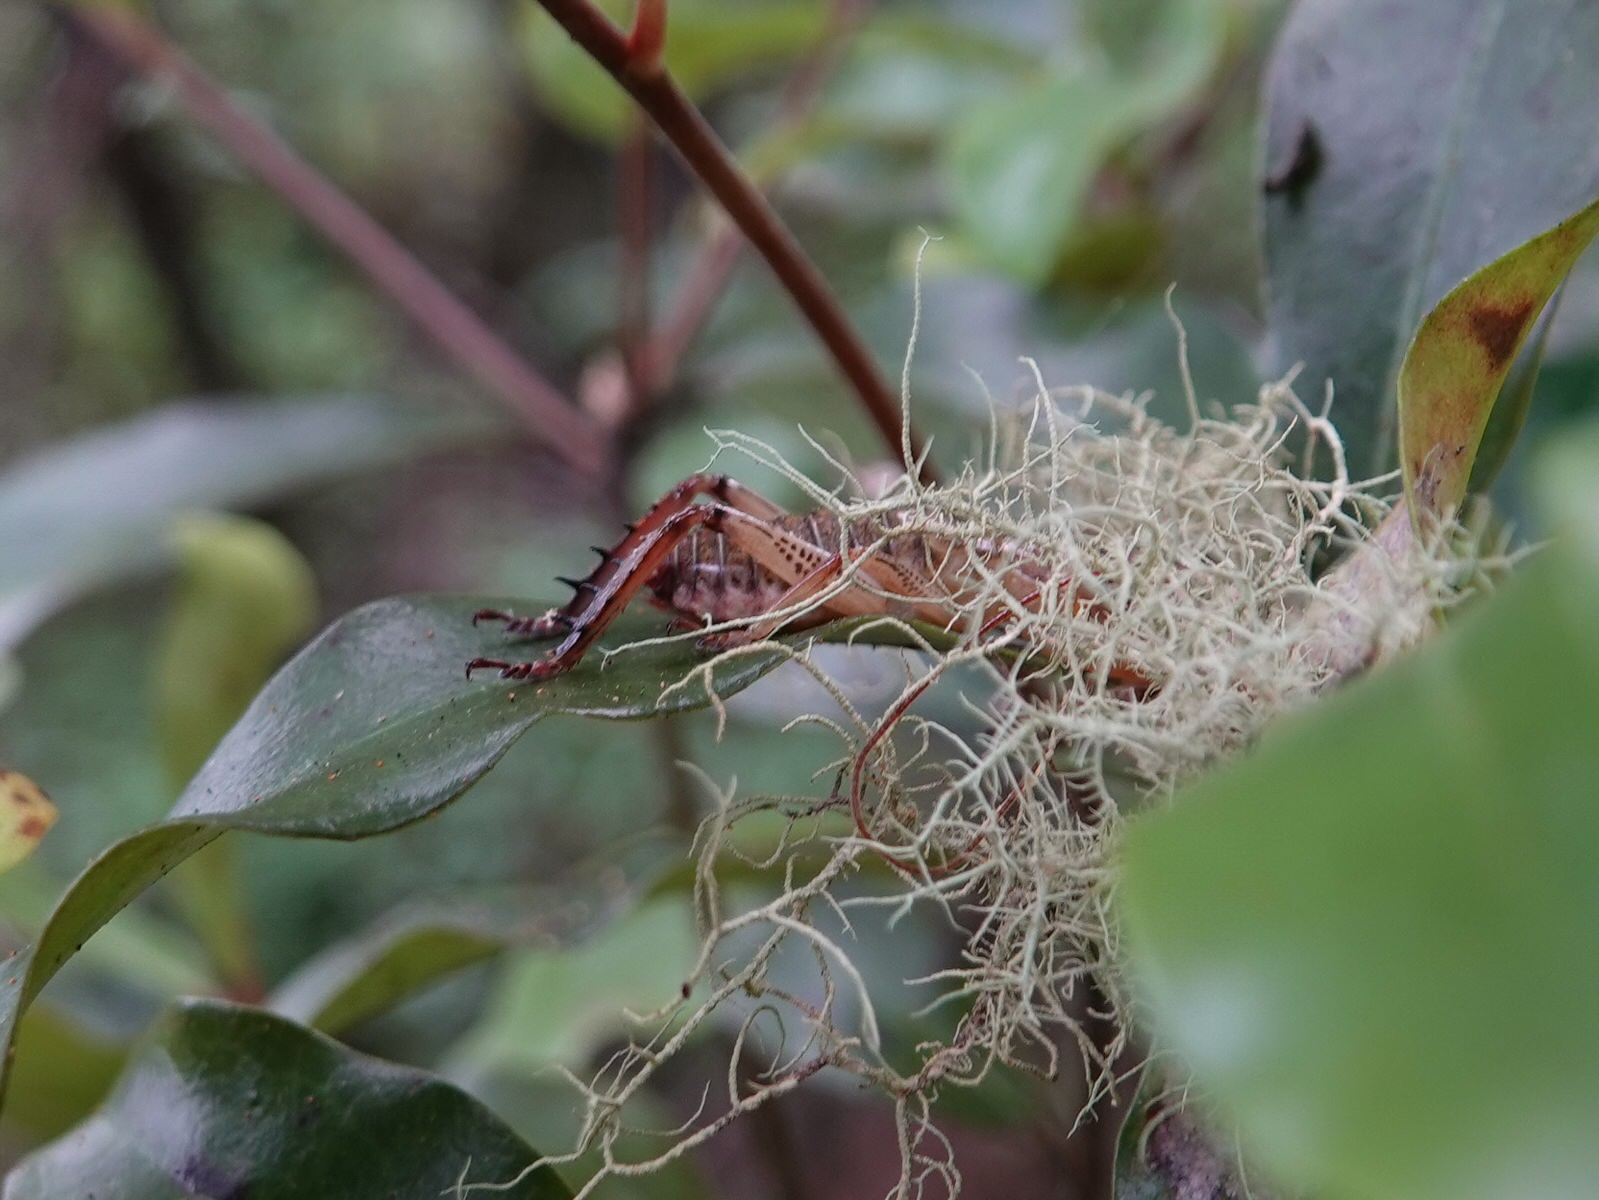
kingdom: Animalia
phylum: Arthropoda
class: Insecta
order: Orthoptera
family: Anostostomatidae
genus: Hemideina
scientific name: Hemideina thoracica
